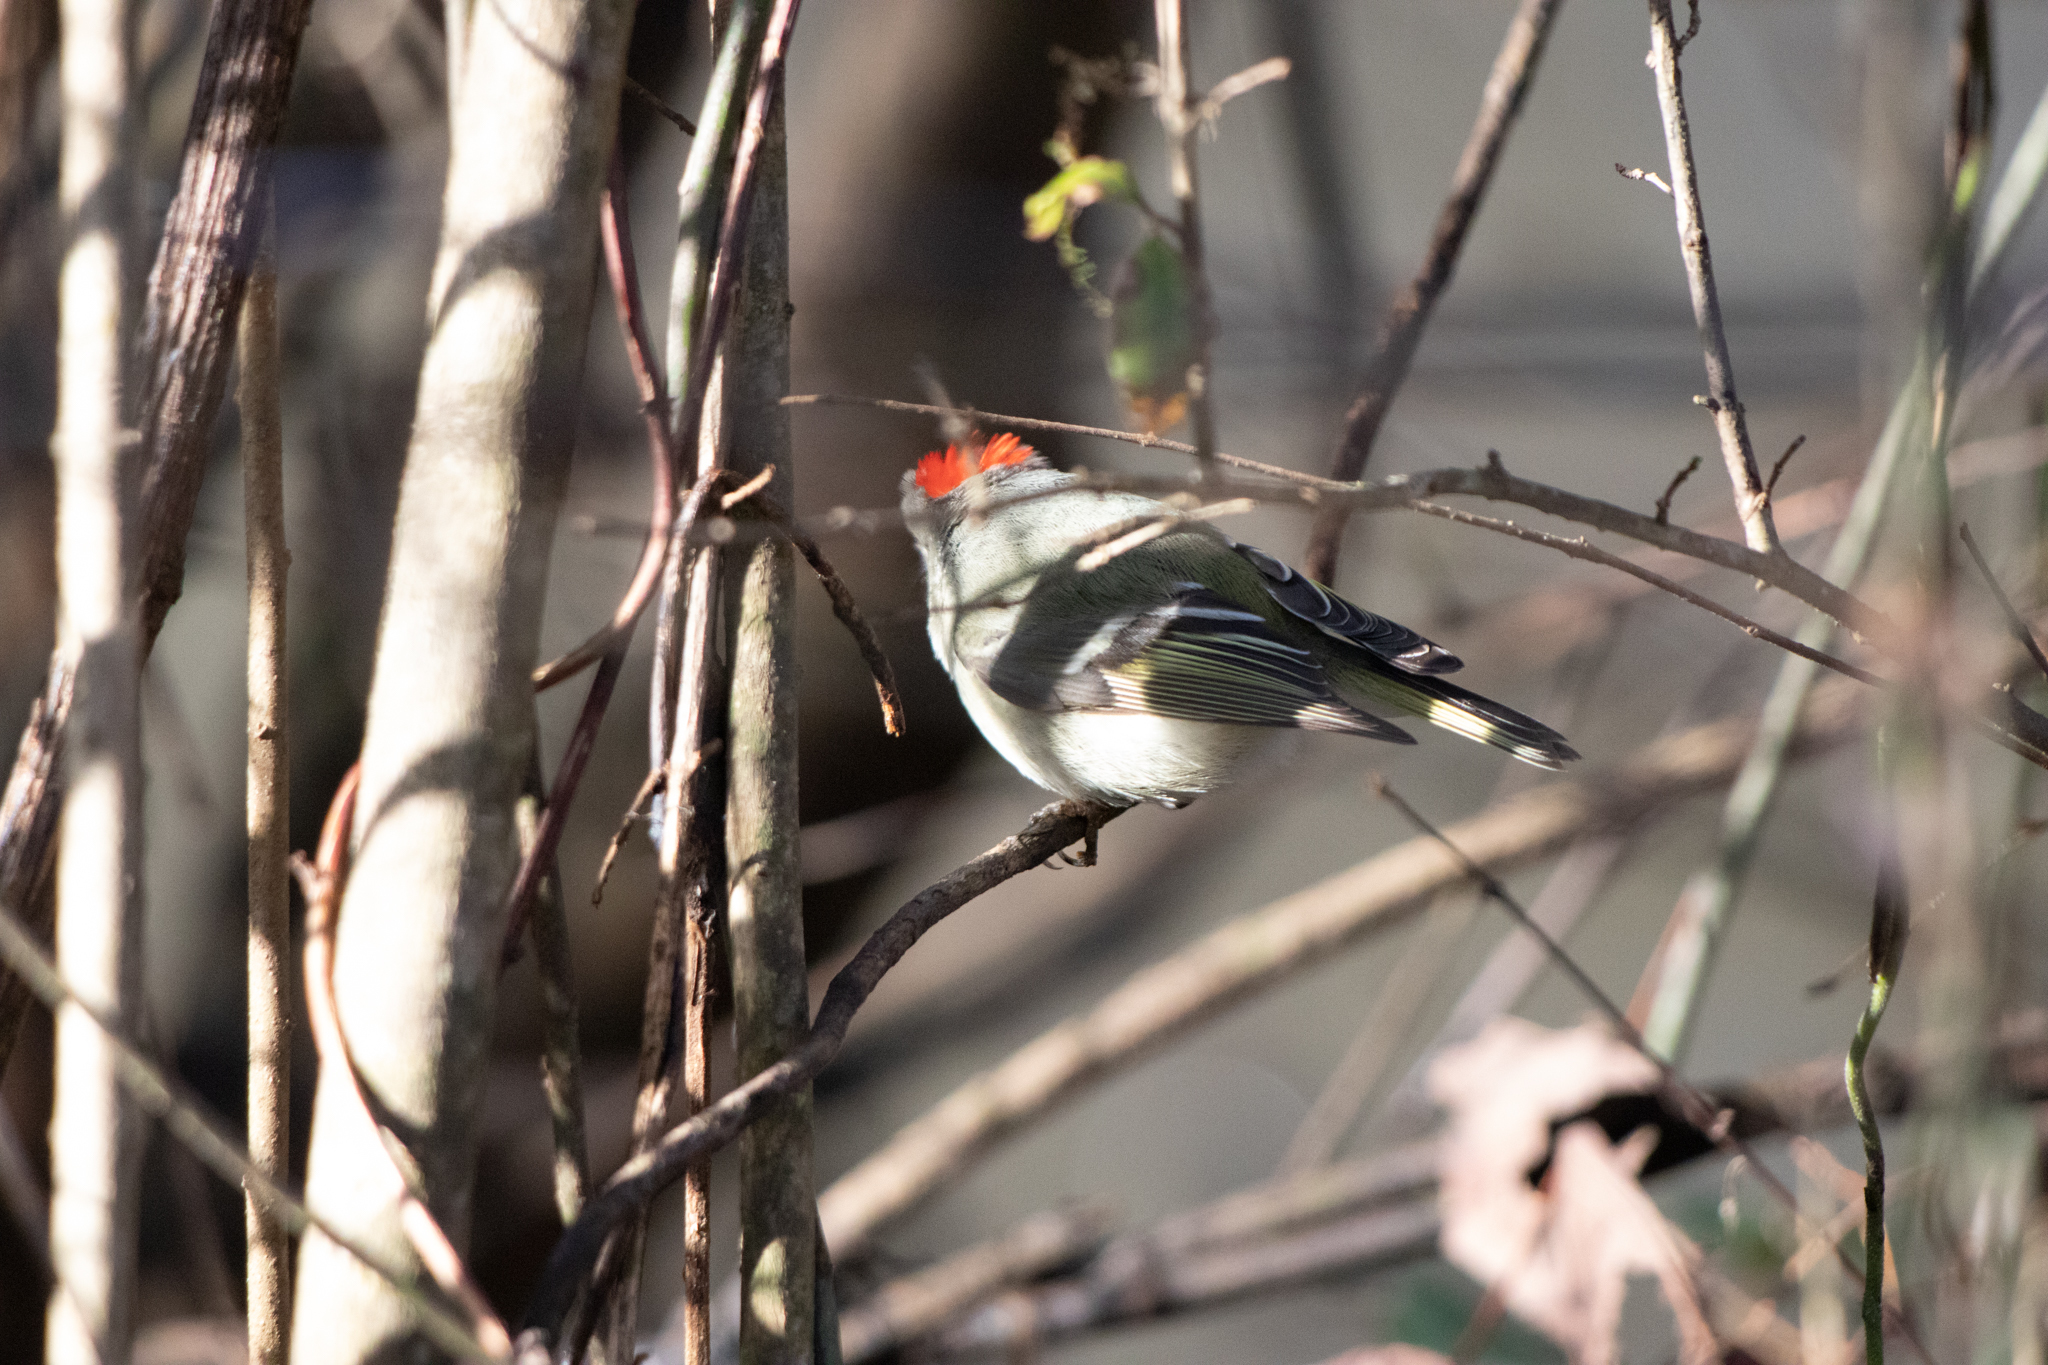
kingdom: Animalia
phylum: Chordata
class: Aves
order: Passeriformes
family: Regulidae
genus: Regulus
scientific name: Regulus calendula
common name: Ruby-crowned kinglet
